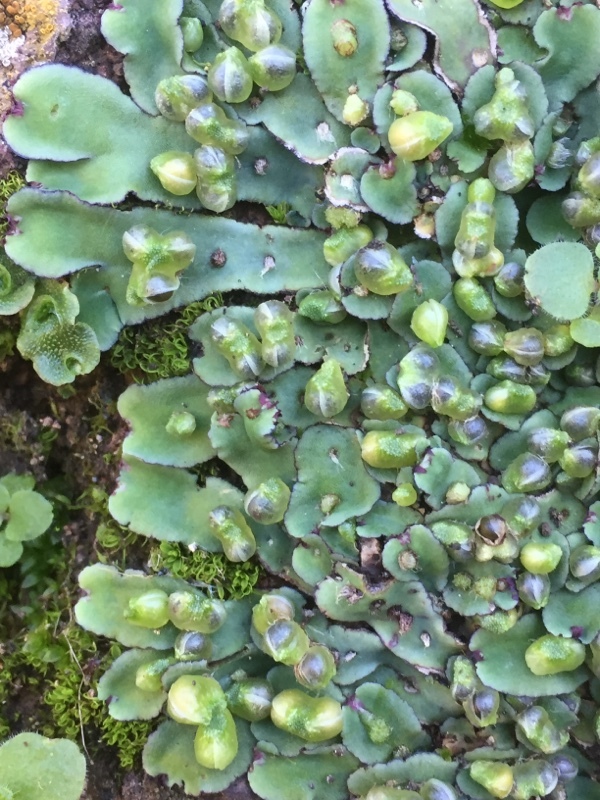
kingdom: Plantae
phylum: Marchantiophyta
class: Marchantiopsida
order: Marchantiales
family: Aytoniaceae
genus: Plagiochasma
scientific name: Plagiochasma rupestre
